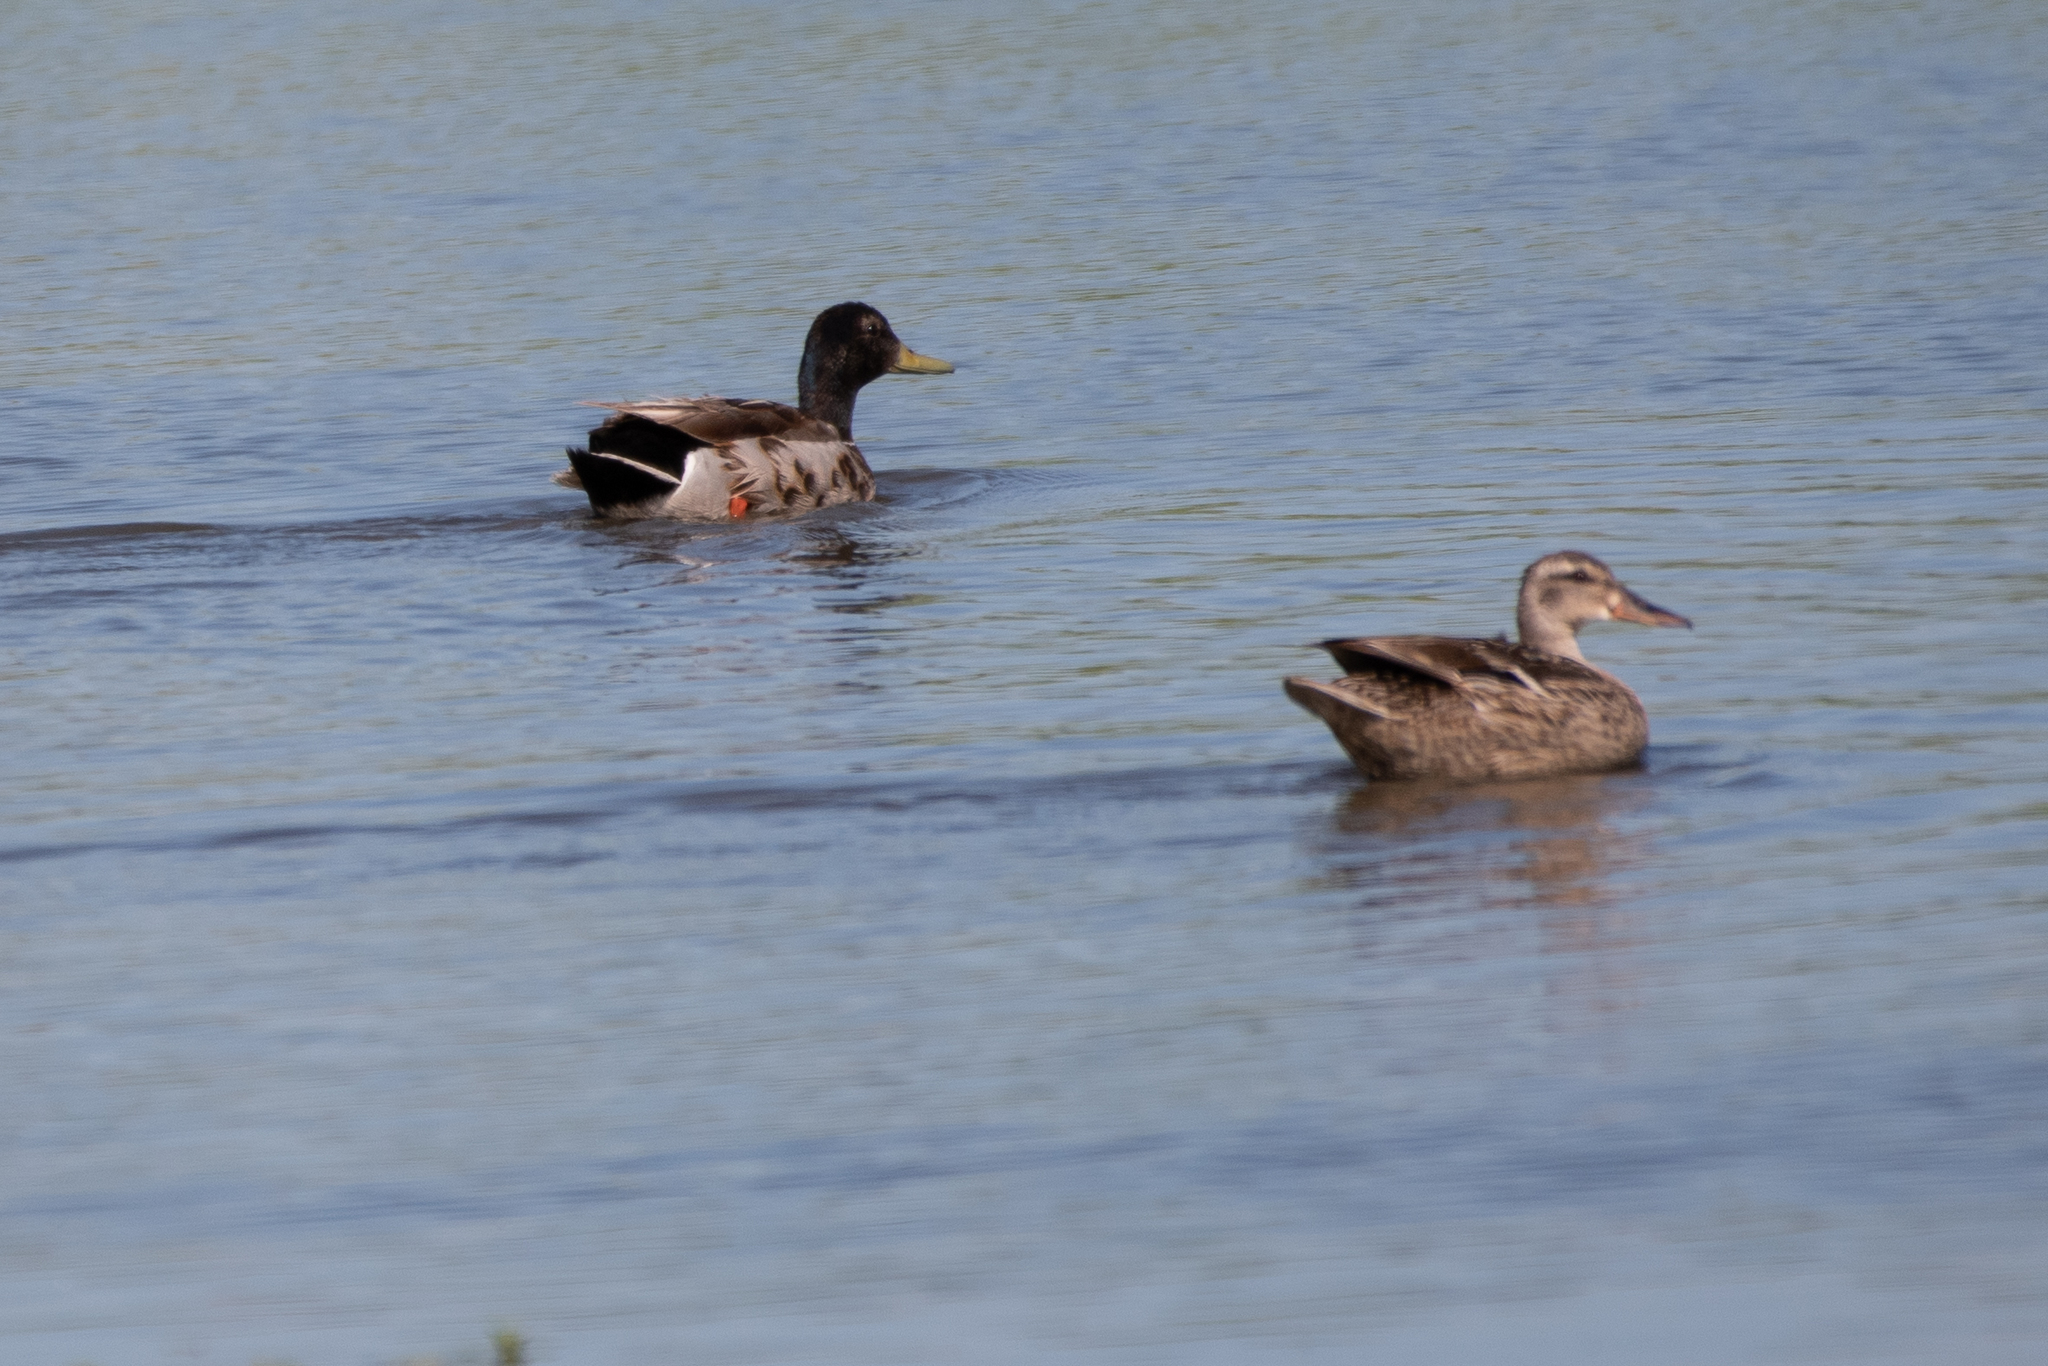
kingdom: Animalia
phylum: Chordata
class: Aves
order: Anseriformes
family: Anatidae
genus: Anas
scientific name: Anas platyrhynchos
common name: Mallard
